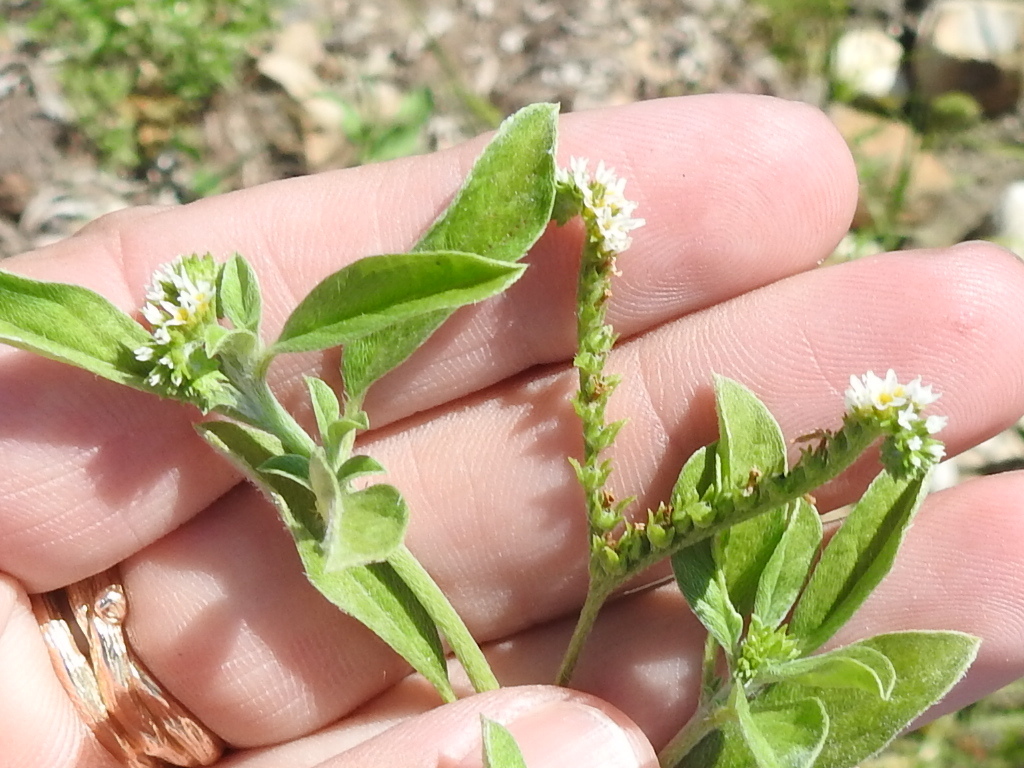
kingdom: Plantae
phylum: Tracheophyta
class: Magnoliopsida
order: Boraginales
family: Heliotropiaceae
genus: Euploca
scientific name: Euploca procumbens
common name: Fourspike heliotrope
